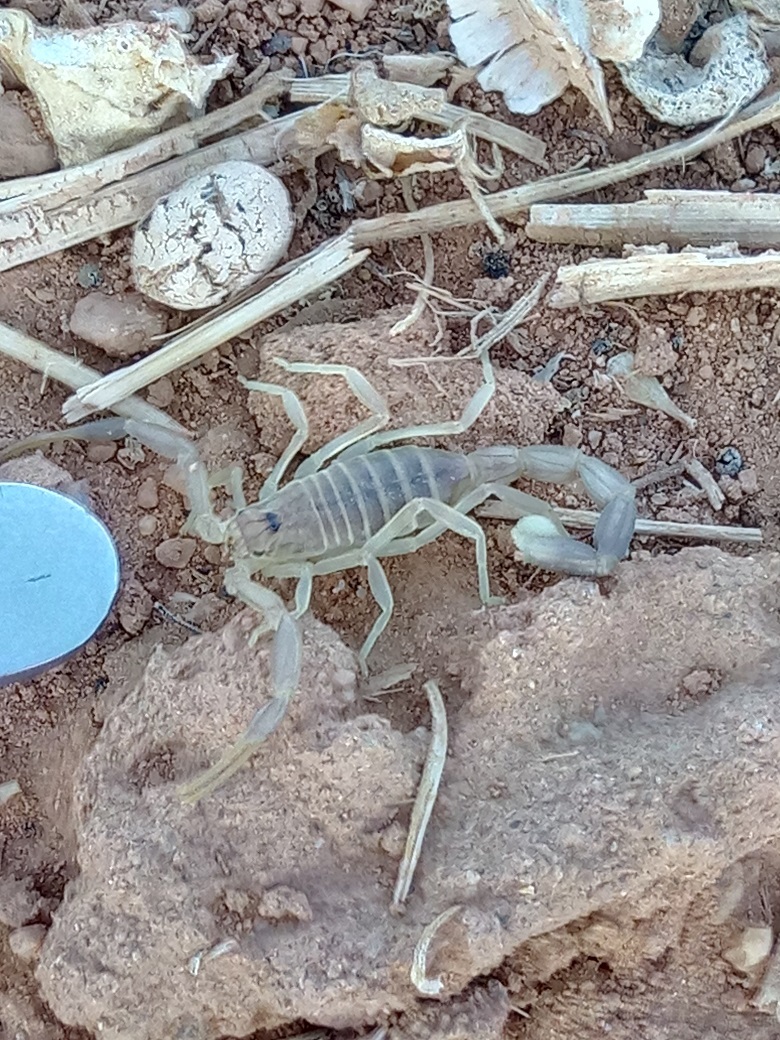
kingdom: Animalia
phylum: Arthropoda
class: Arachnida
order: Scorpiones
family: Buthidae
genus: Androctonus
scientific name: Androctonus amoreuxi
